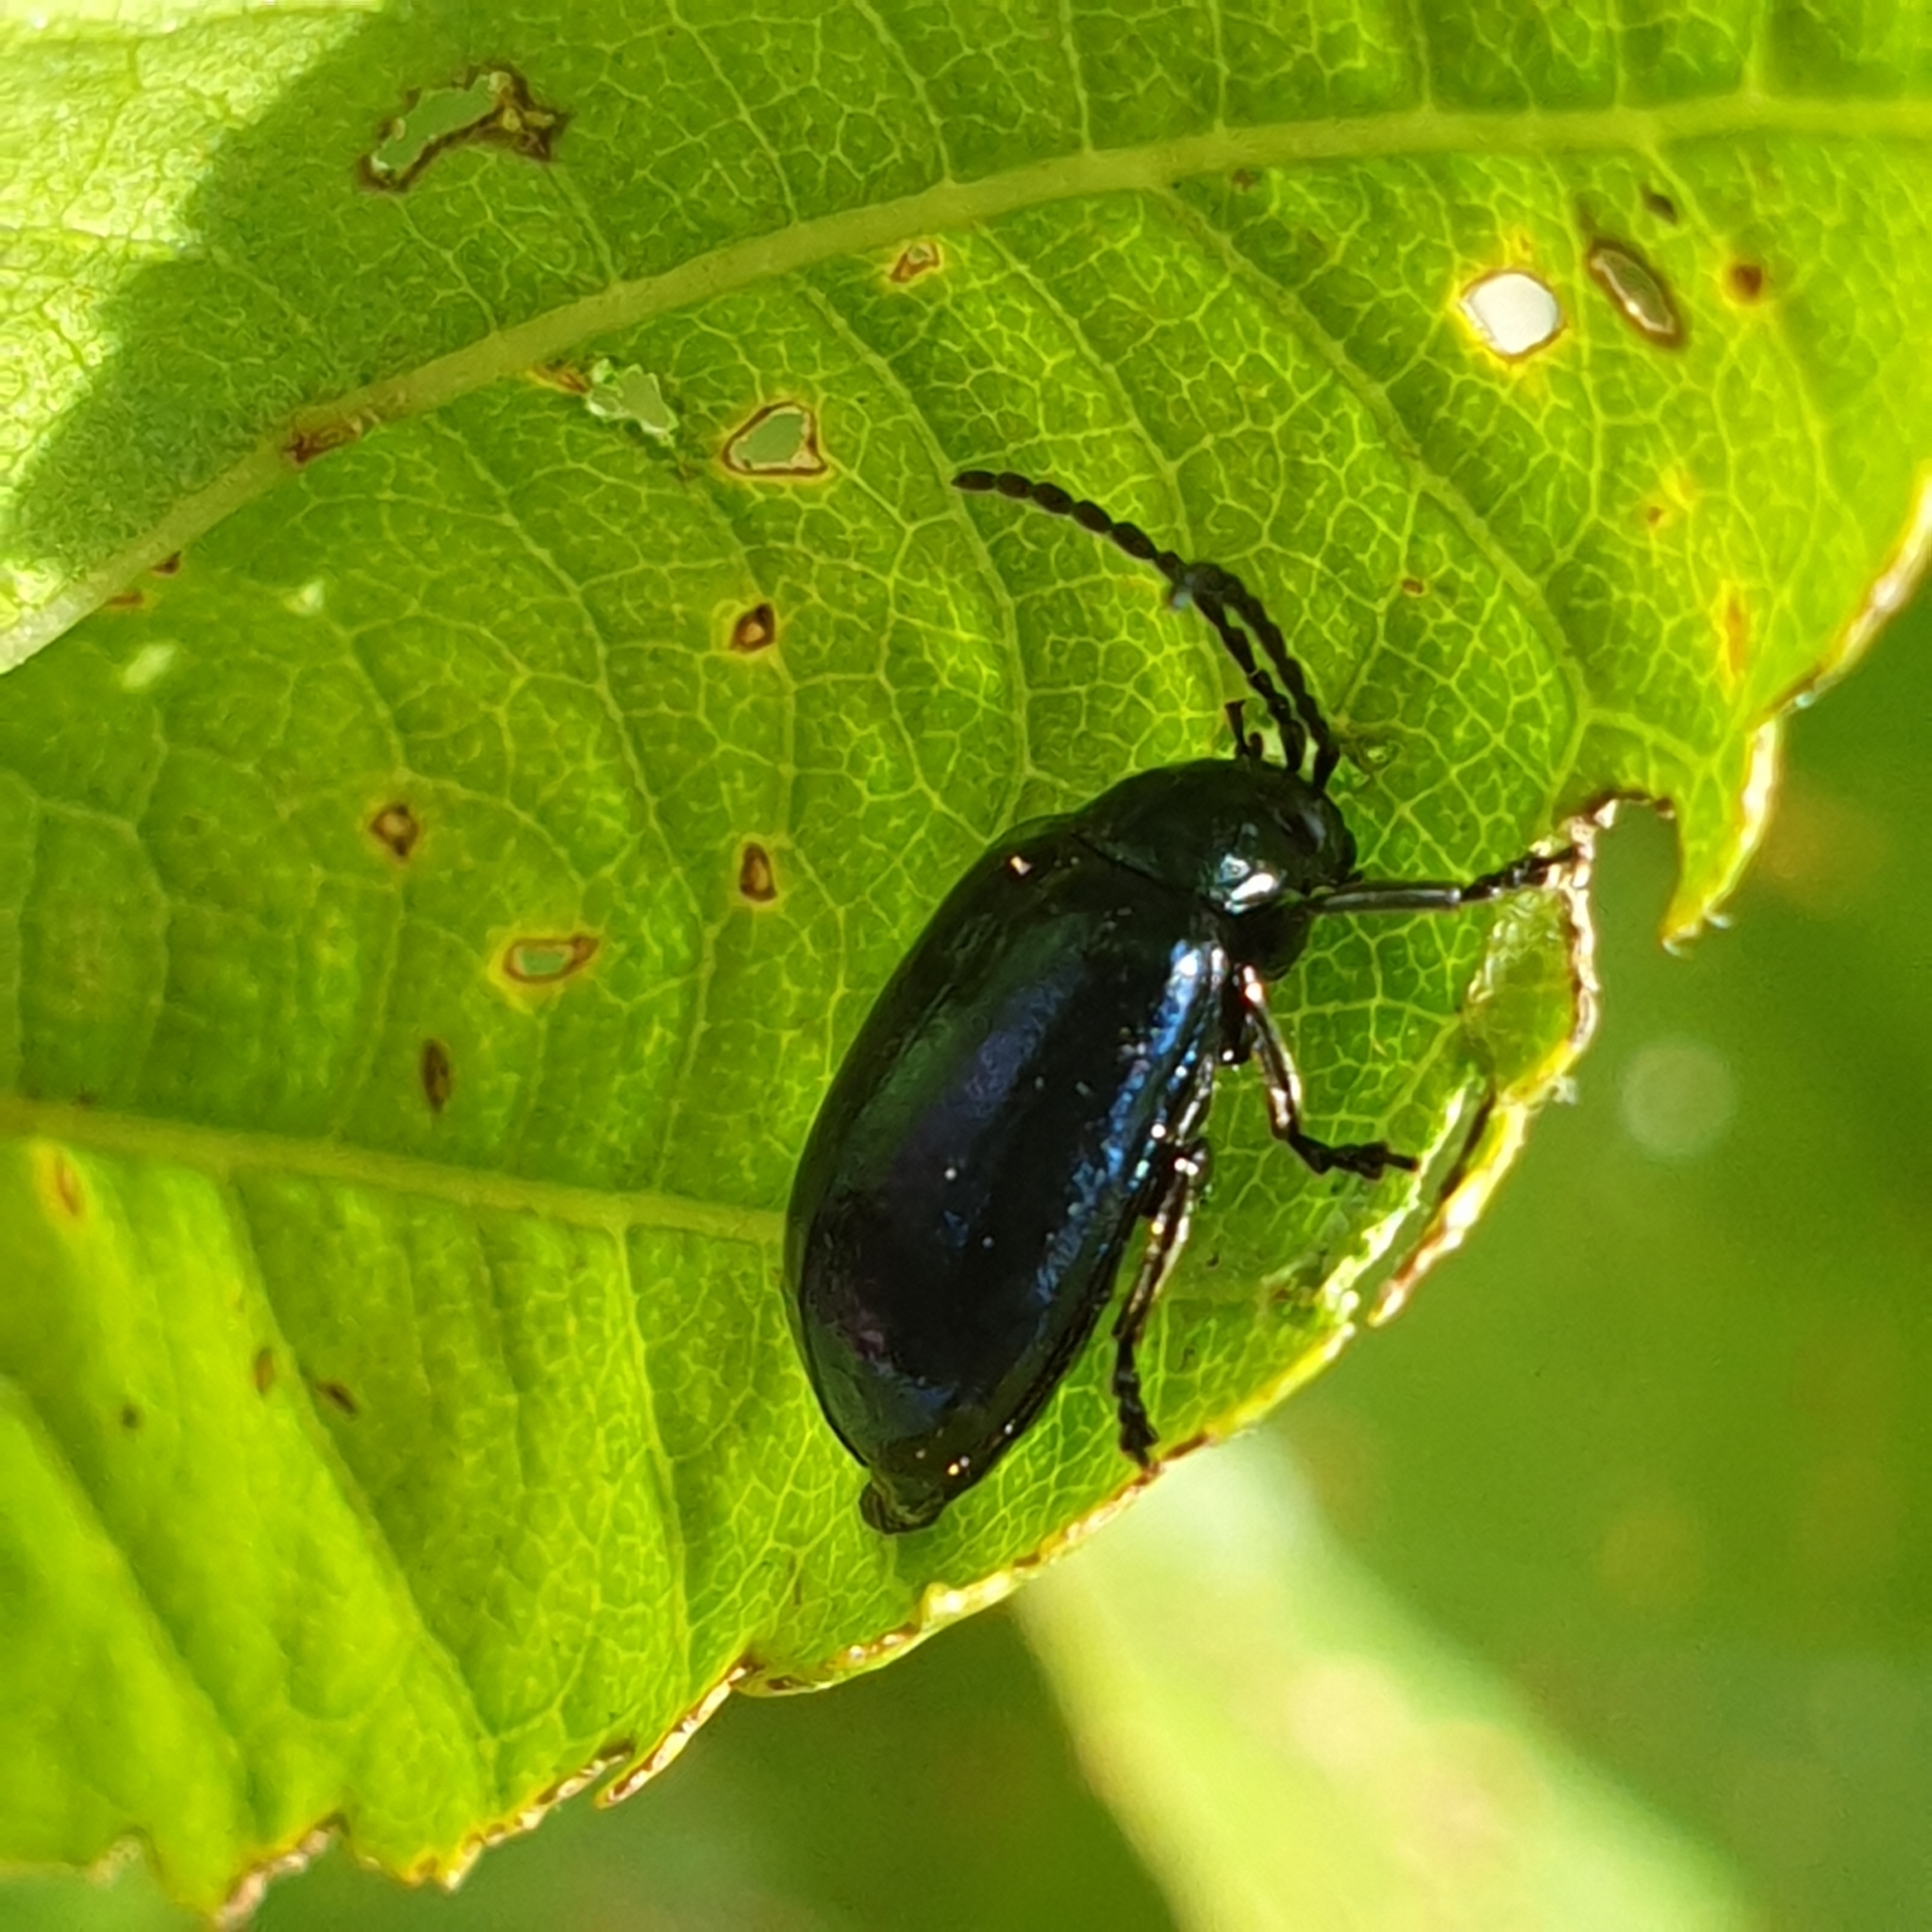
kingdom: Animalia
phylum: Arthropoda
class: Insecta
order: Coleoptera
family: Chrysomelidae
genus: Agelastica
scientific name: Agelastica alni
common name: Alder leaf beetle
